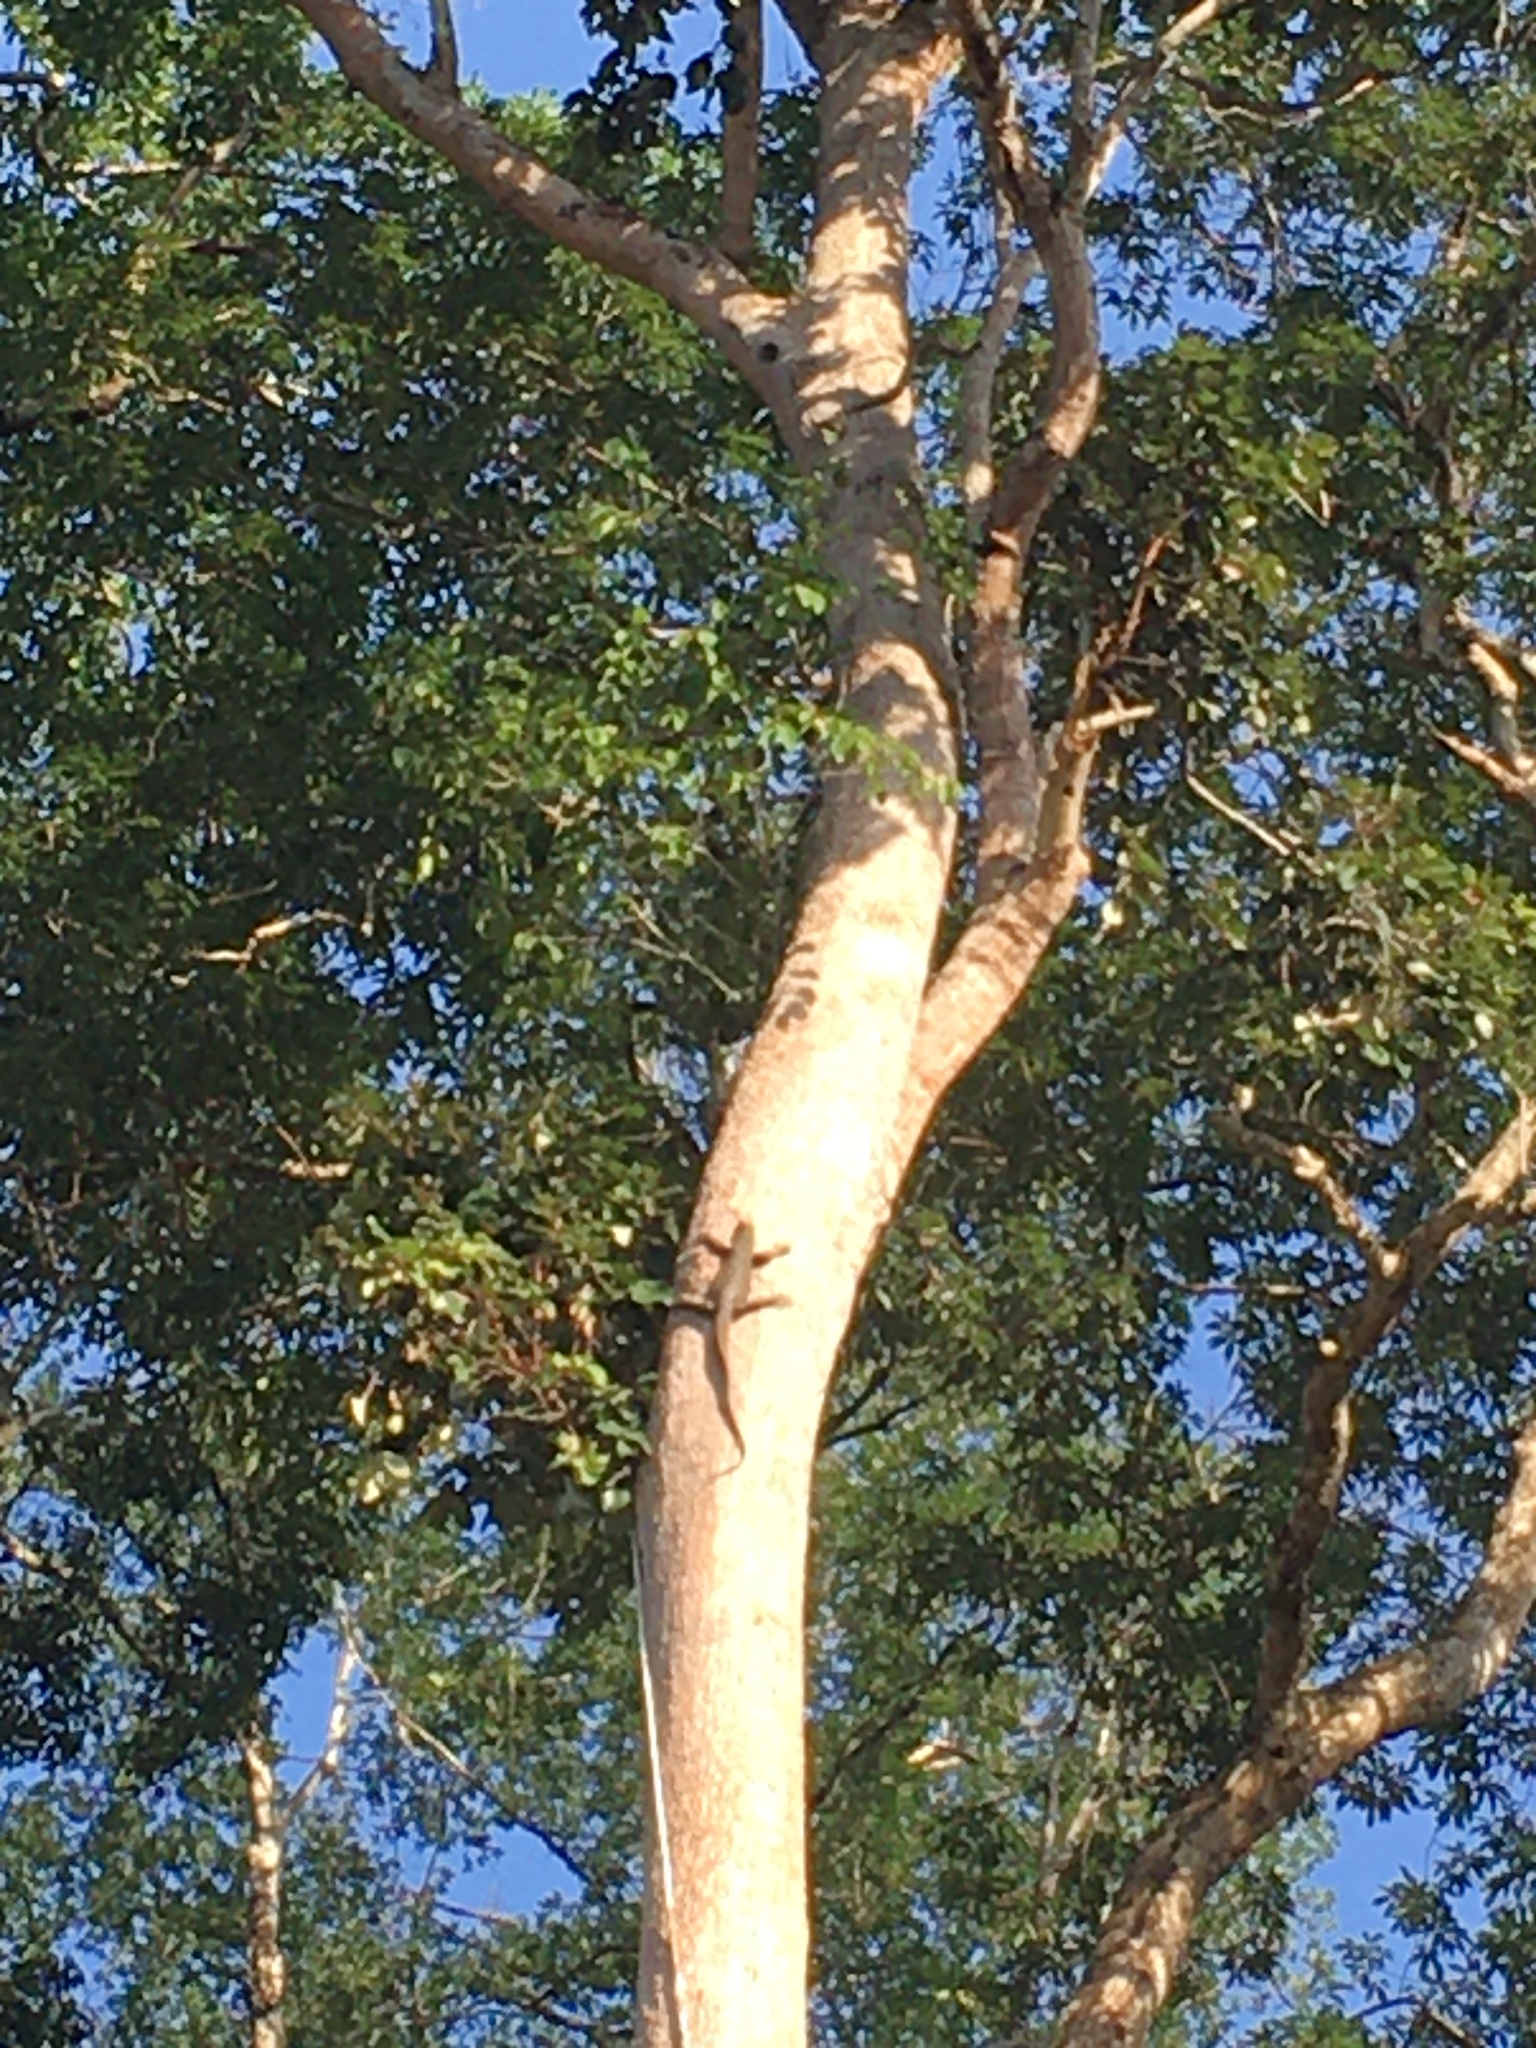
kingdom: Animalia
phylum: Chordata
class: Squamata
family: Varanidae
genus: Varanus
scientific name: Varanus nebulosus
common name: Clouded monitor
